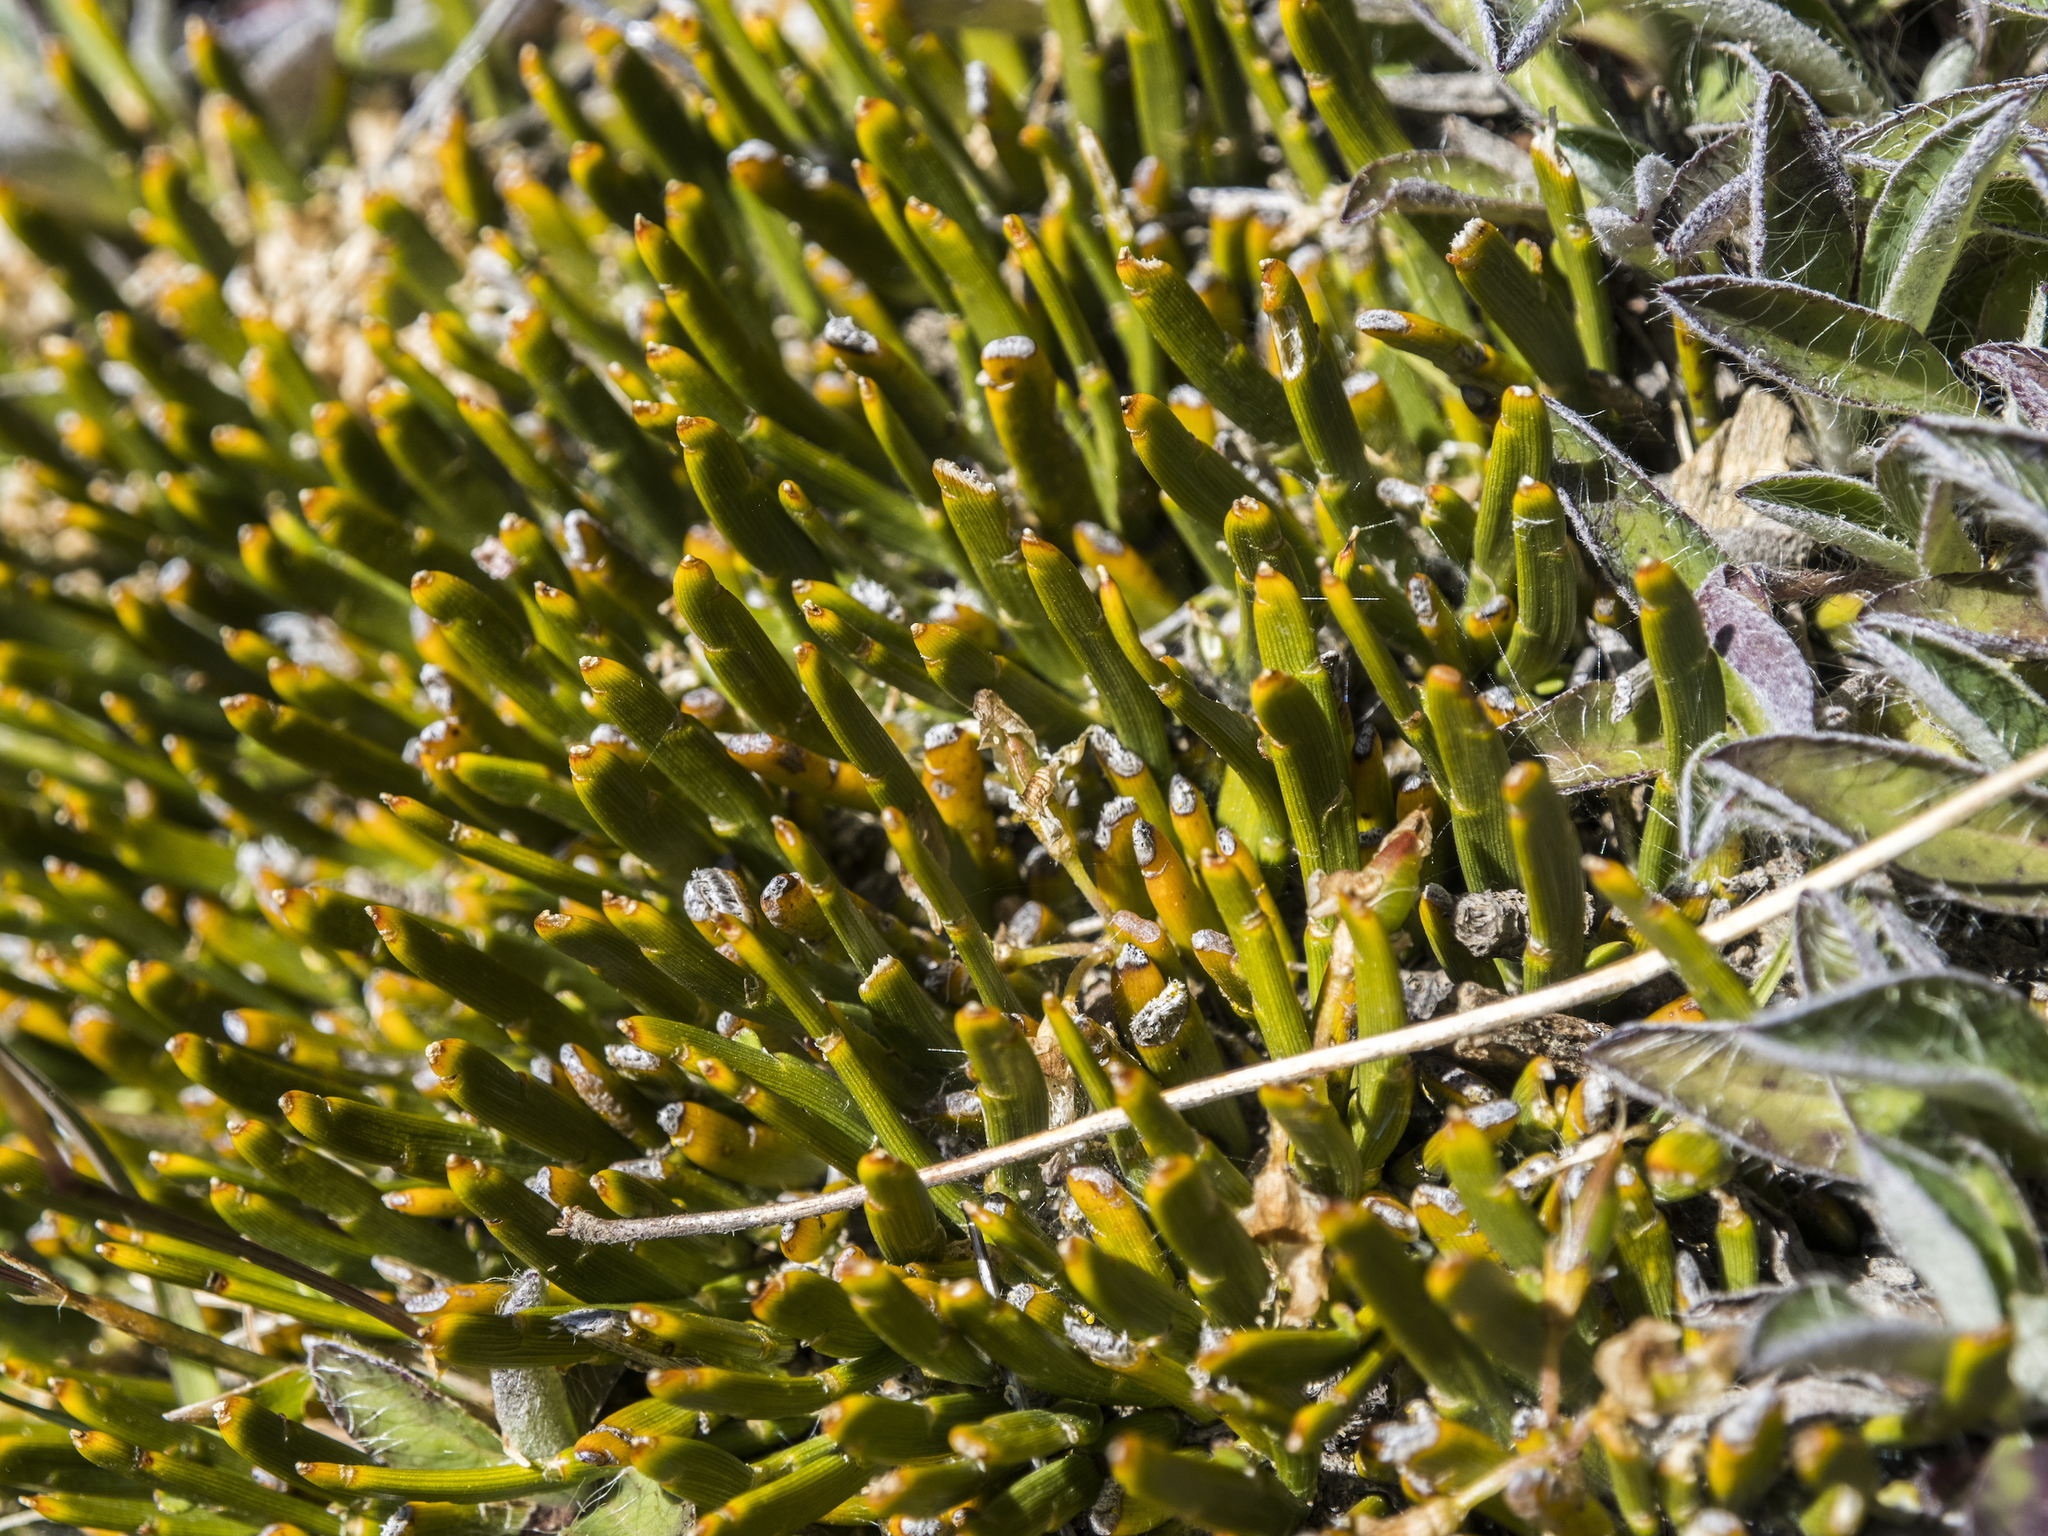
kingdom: Plantae
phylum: Tracheophyta
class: Magnoliopsida
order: Fabales
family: Fabaceae
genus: Carmichaelia
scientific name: Carmichaelia vexillata
